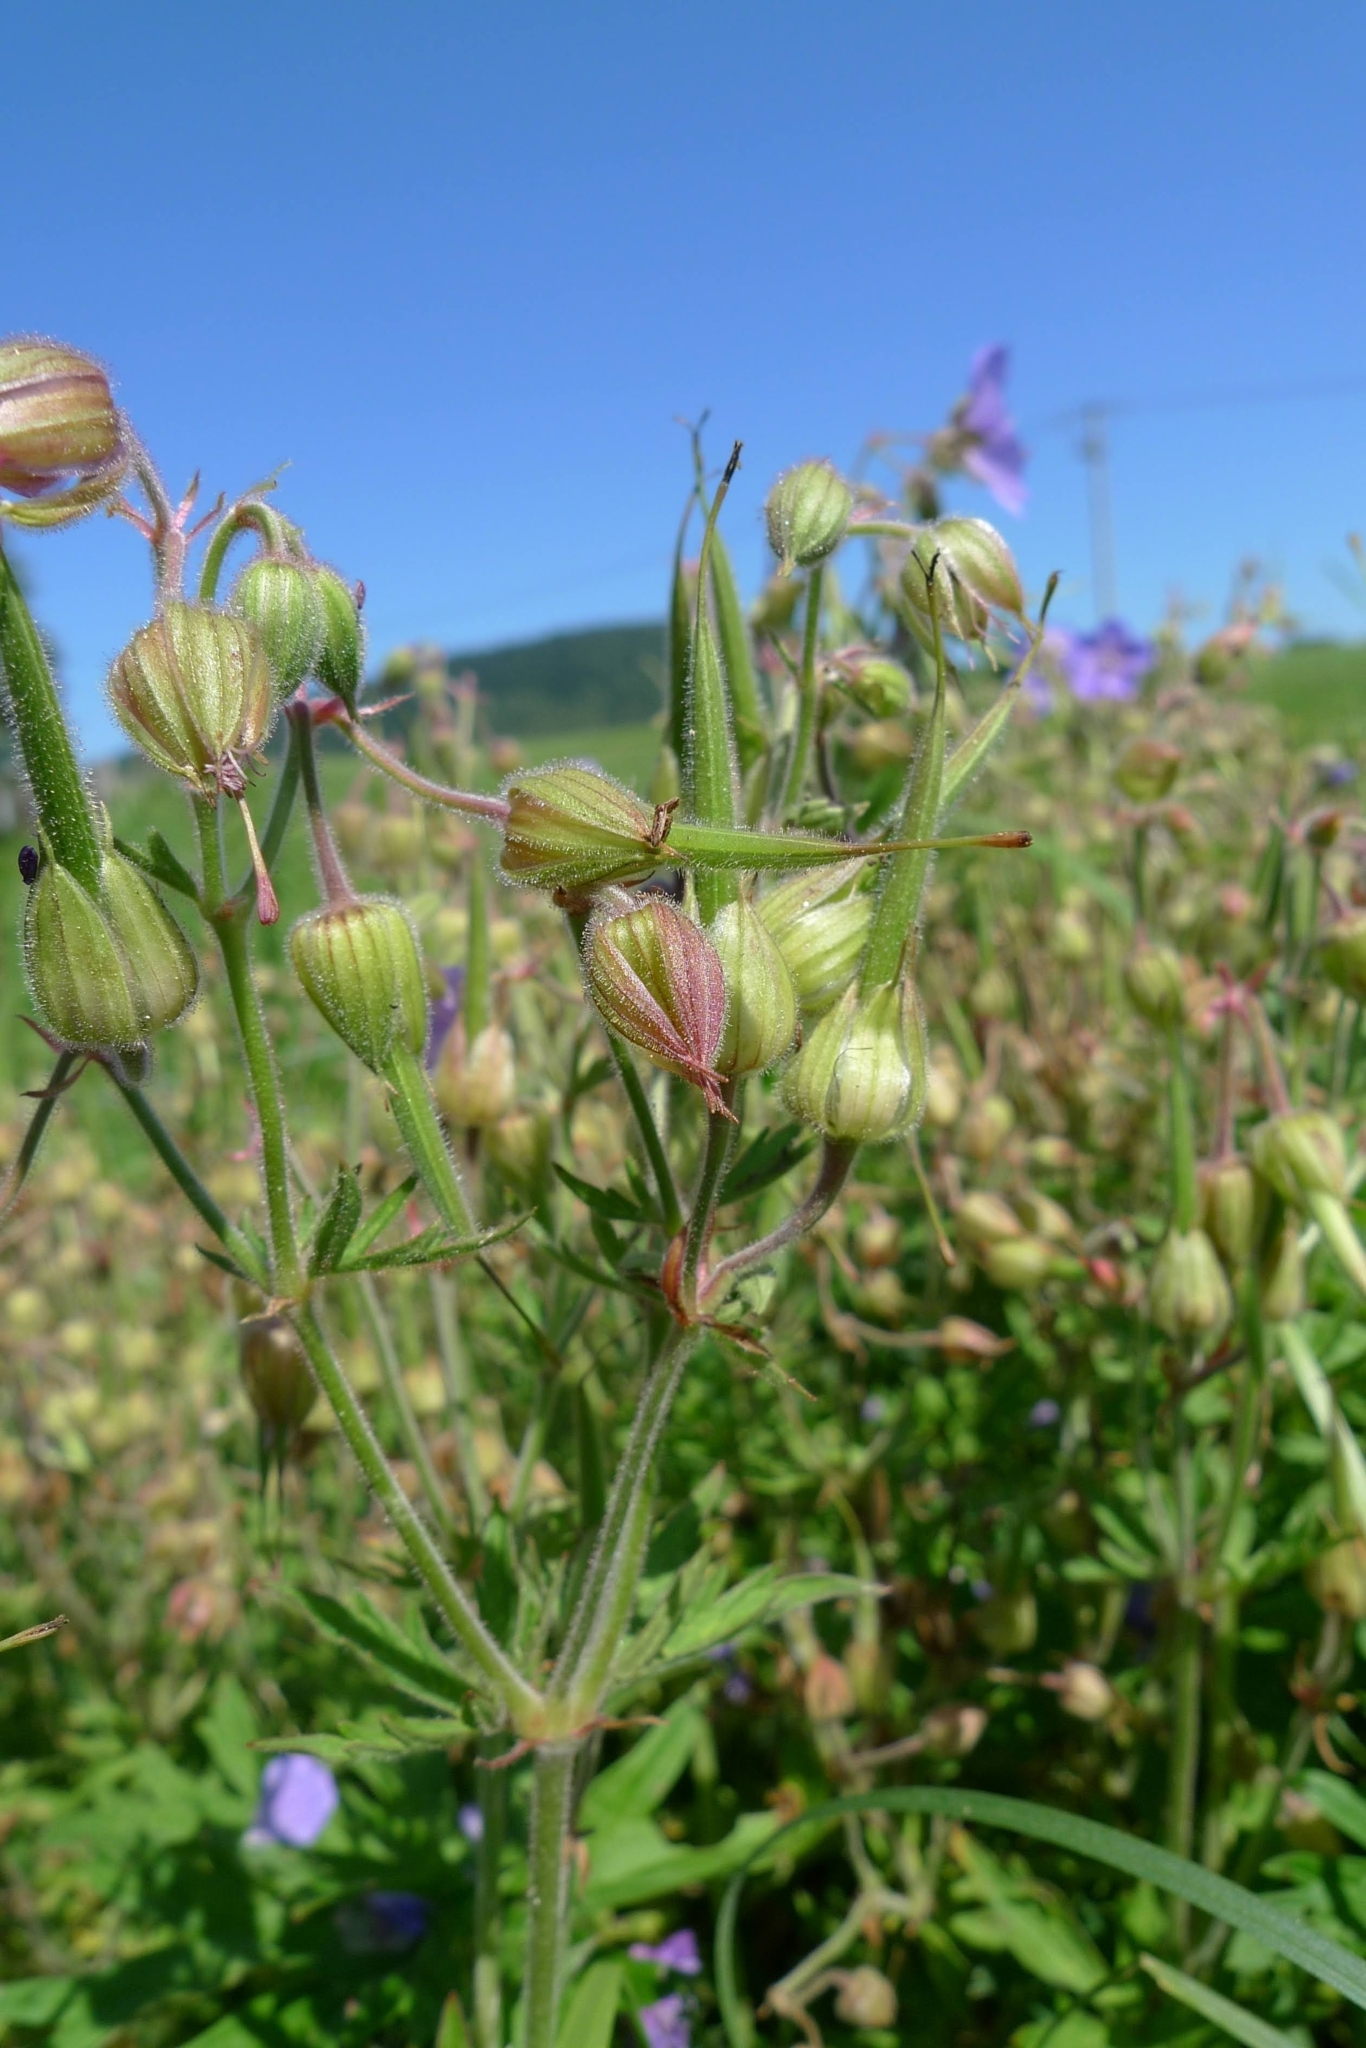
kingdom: Plantae
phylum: Tracheophyta
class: Magnoliopsida
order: Geraniales
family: Geraniaceae
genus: Geranium
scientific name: Geranium pratense
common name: Meadow crane's-bill
